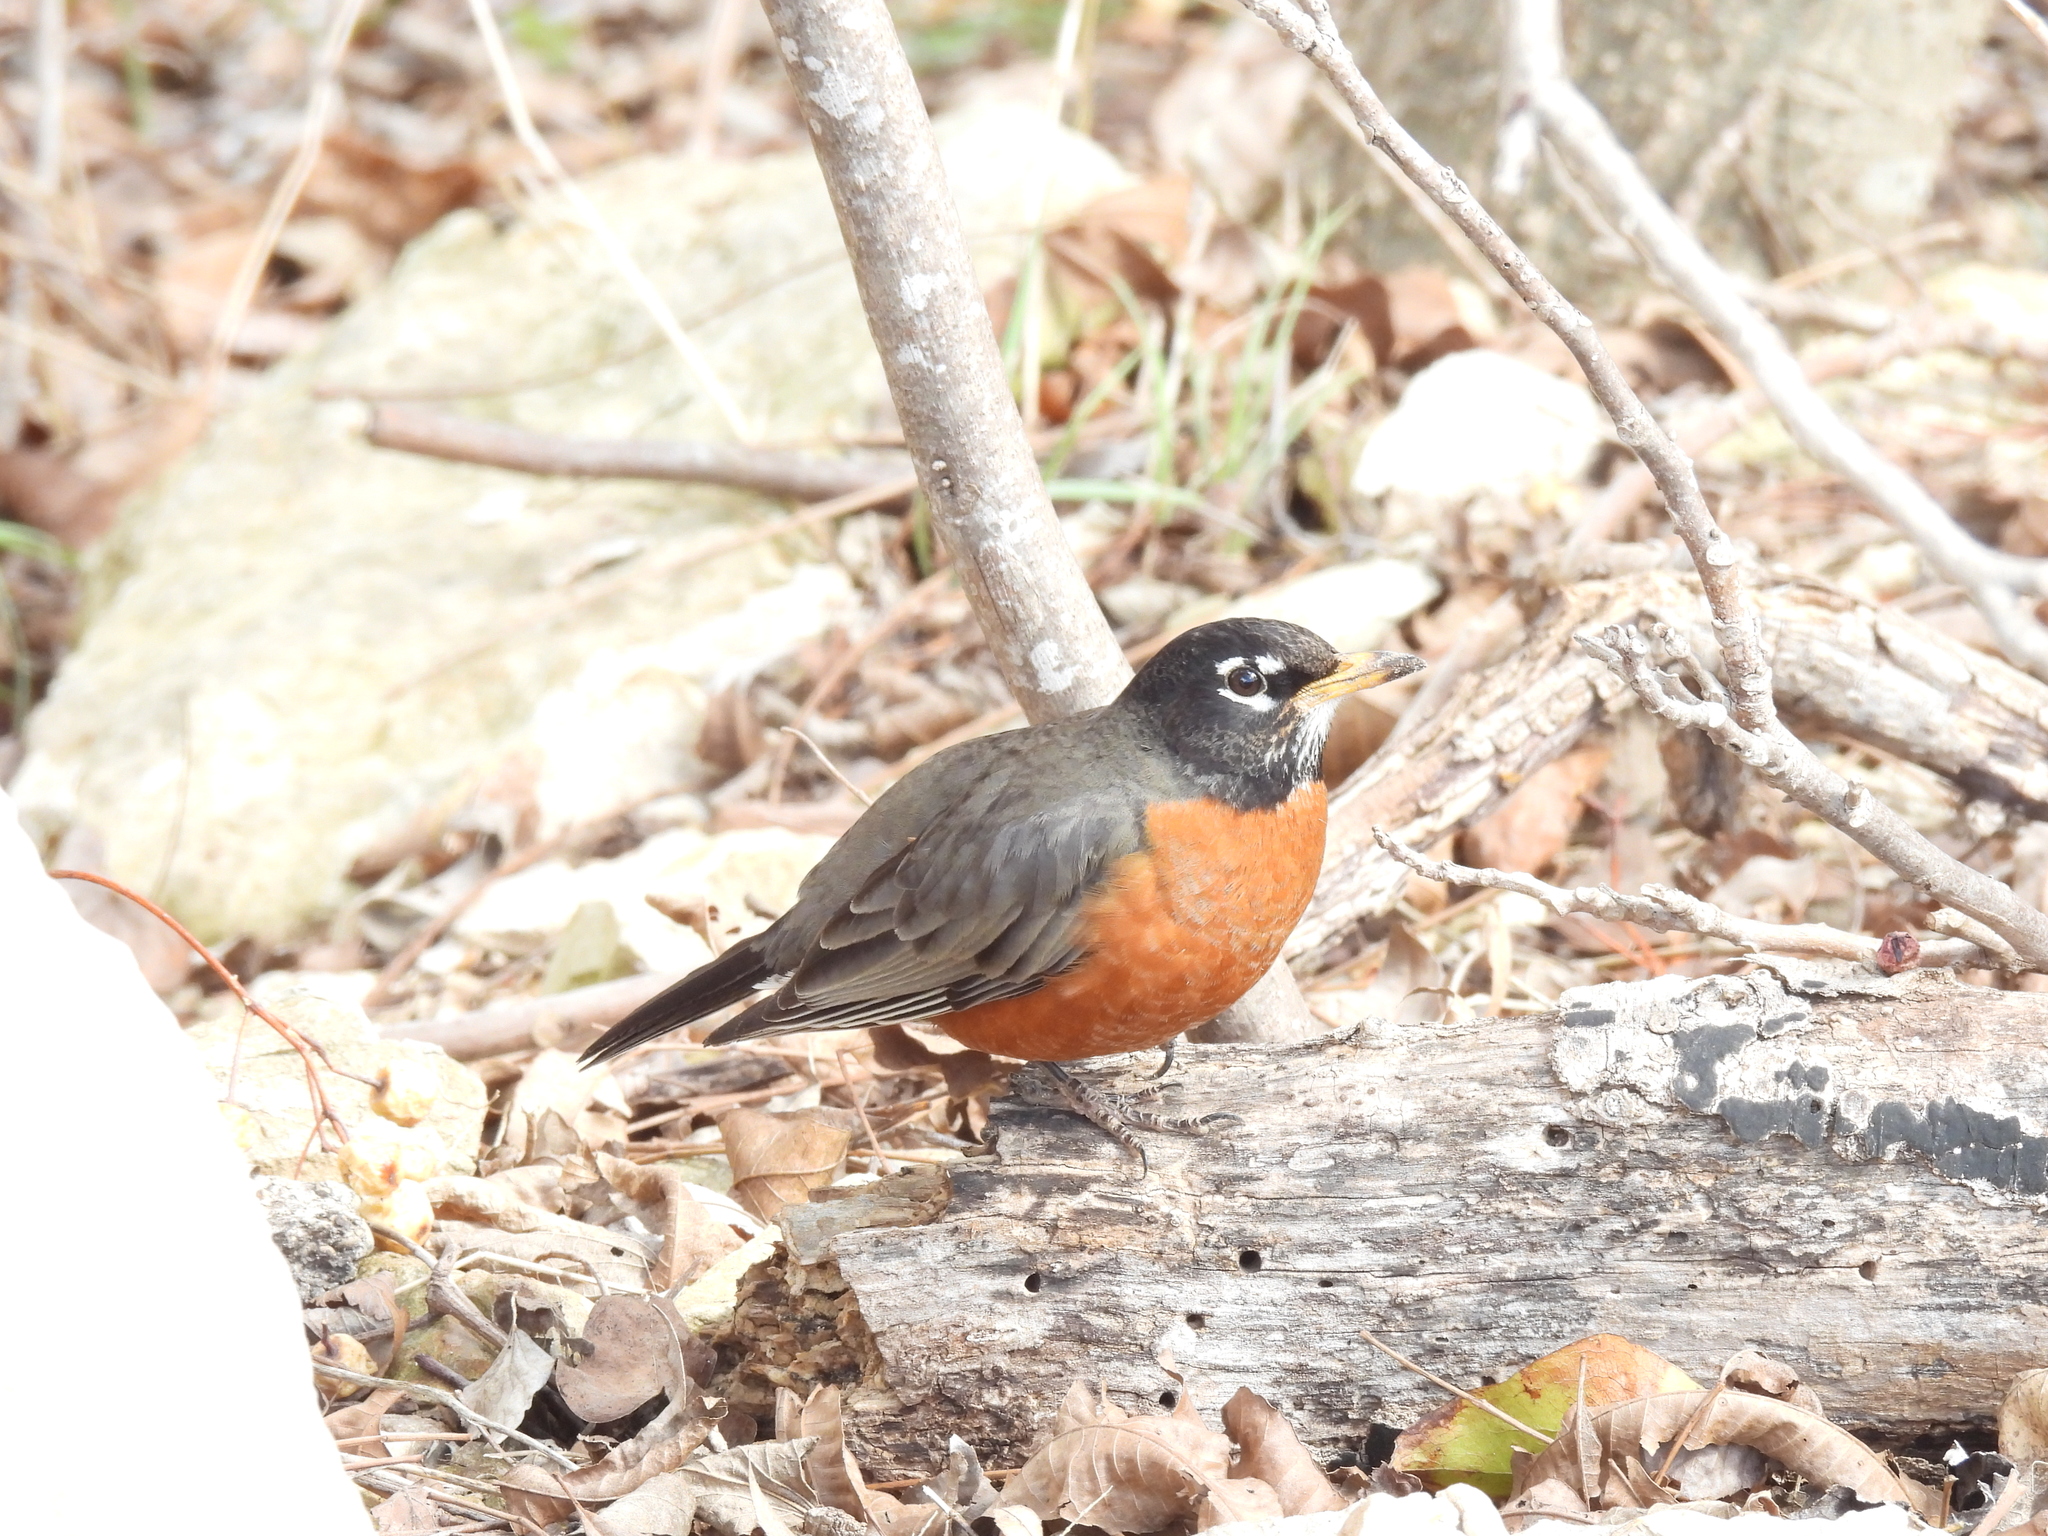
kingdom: Animalia
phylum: Chordata
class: Aves
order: Passeriformes
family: Turdidae
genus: Turdus
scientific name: Turdus migratorius
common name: American robin
